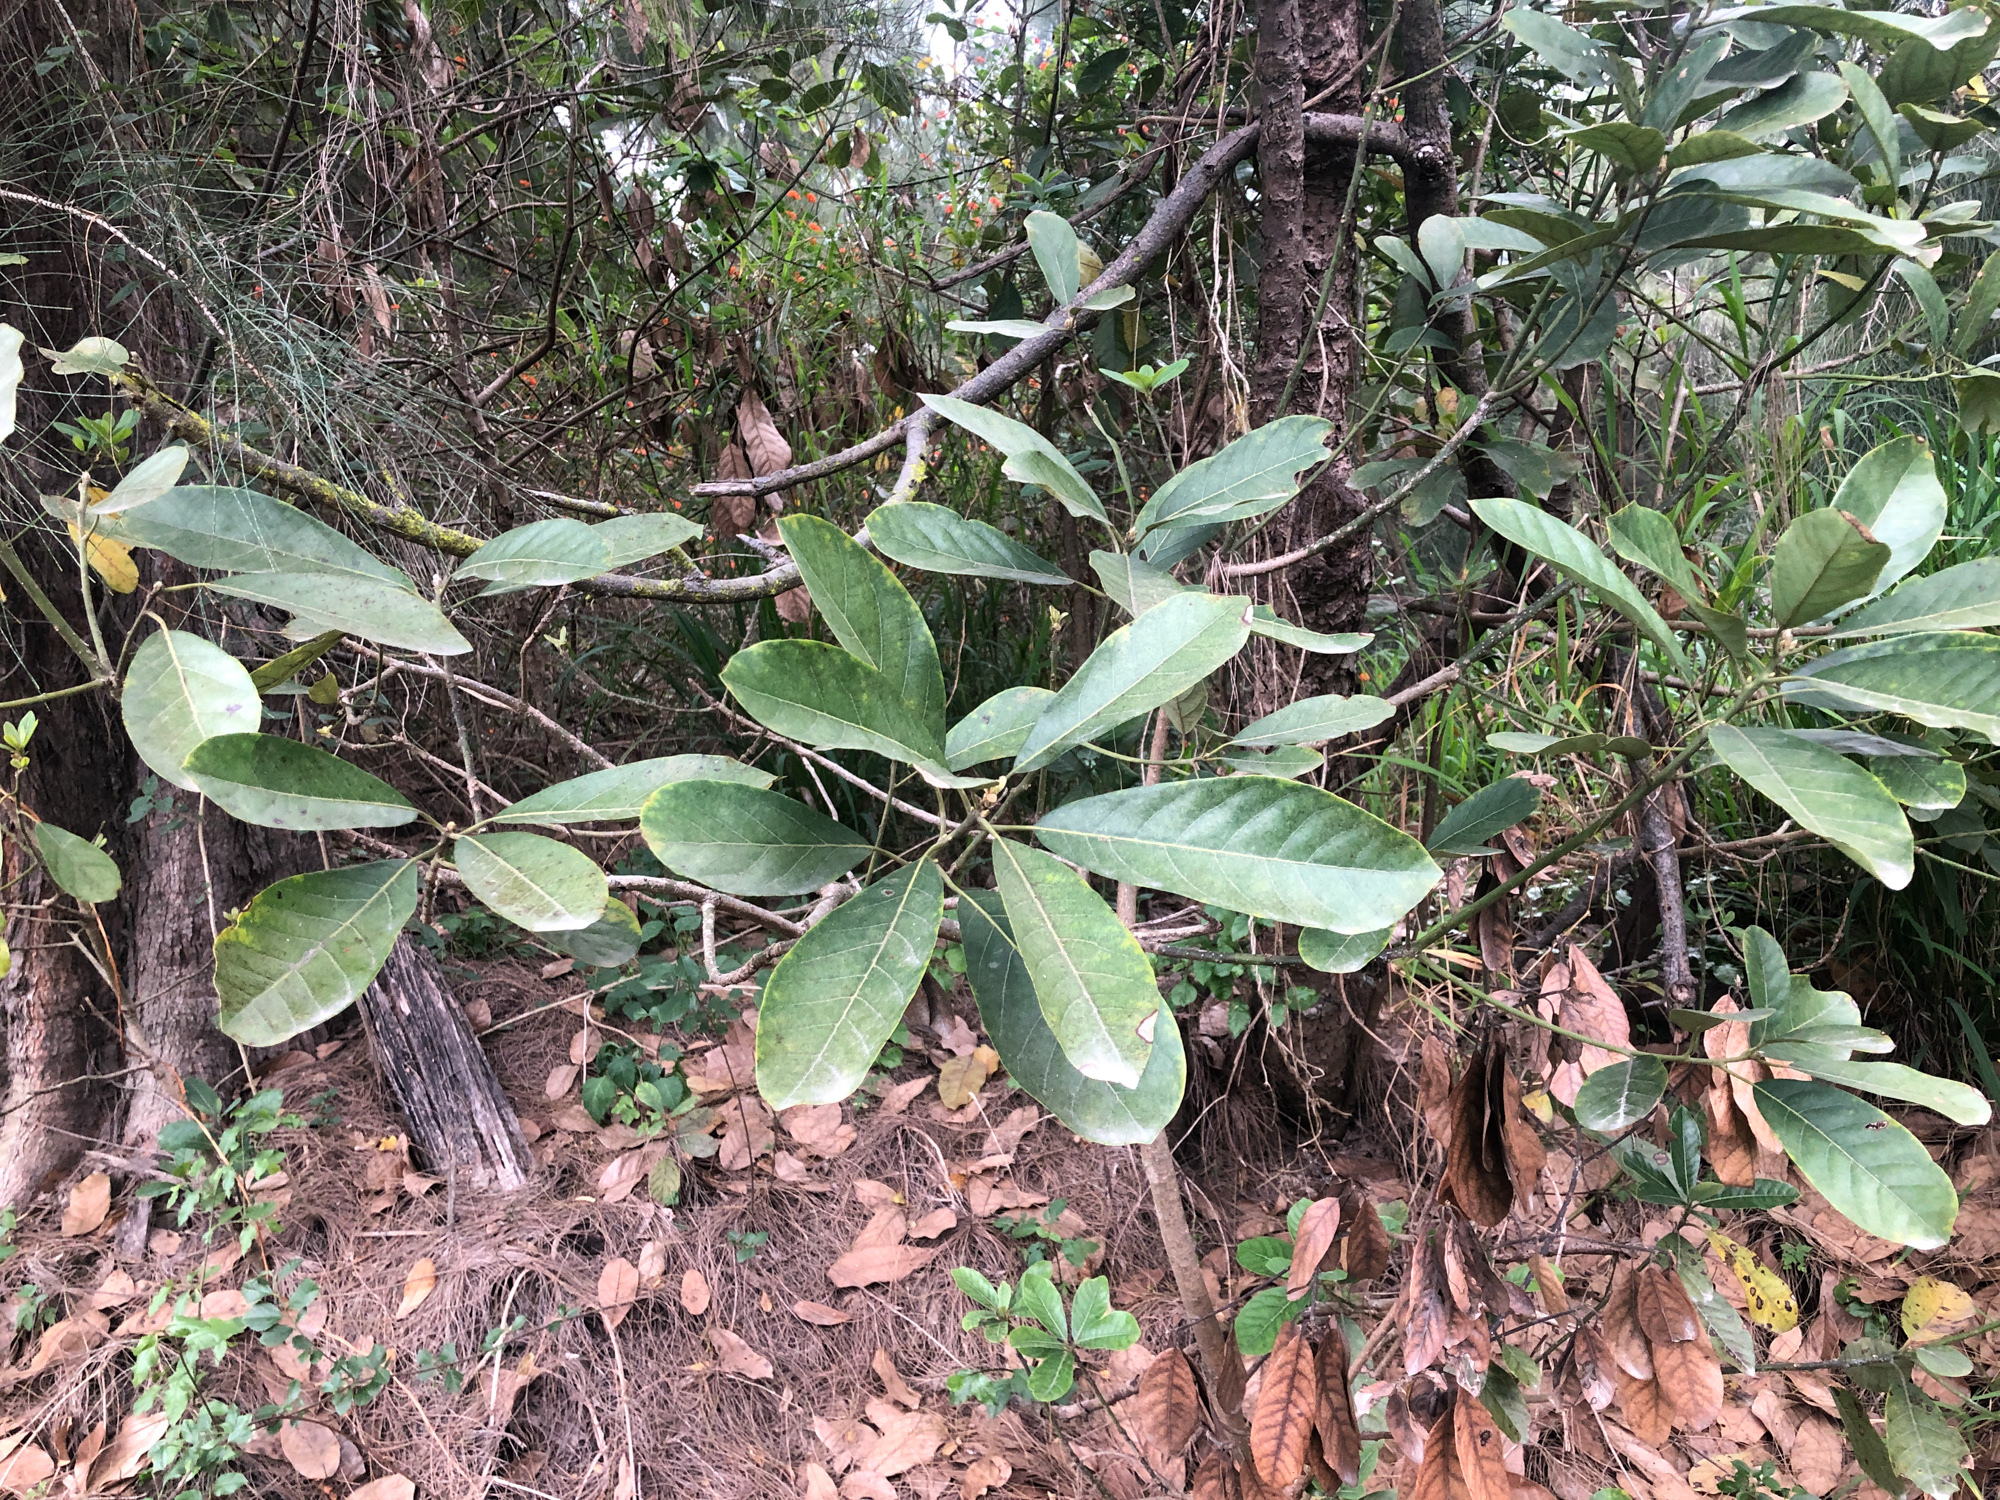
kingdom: Plantae
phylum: Tracheophyta
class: Magnoliopsida
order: Laurales
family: Lauraceae
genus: Litsea
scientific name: Litsea glutinosa
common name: Indian-laurel
